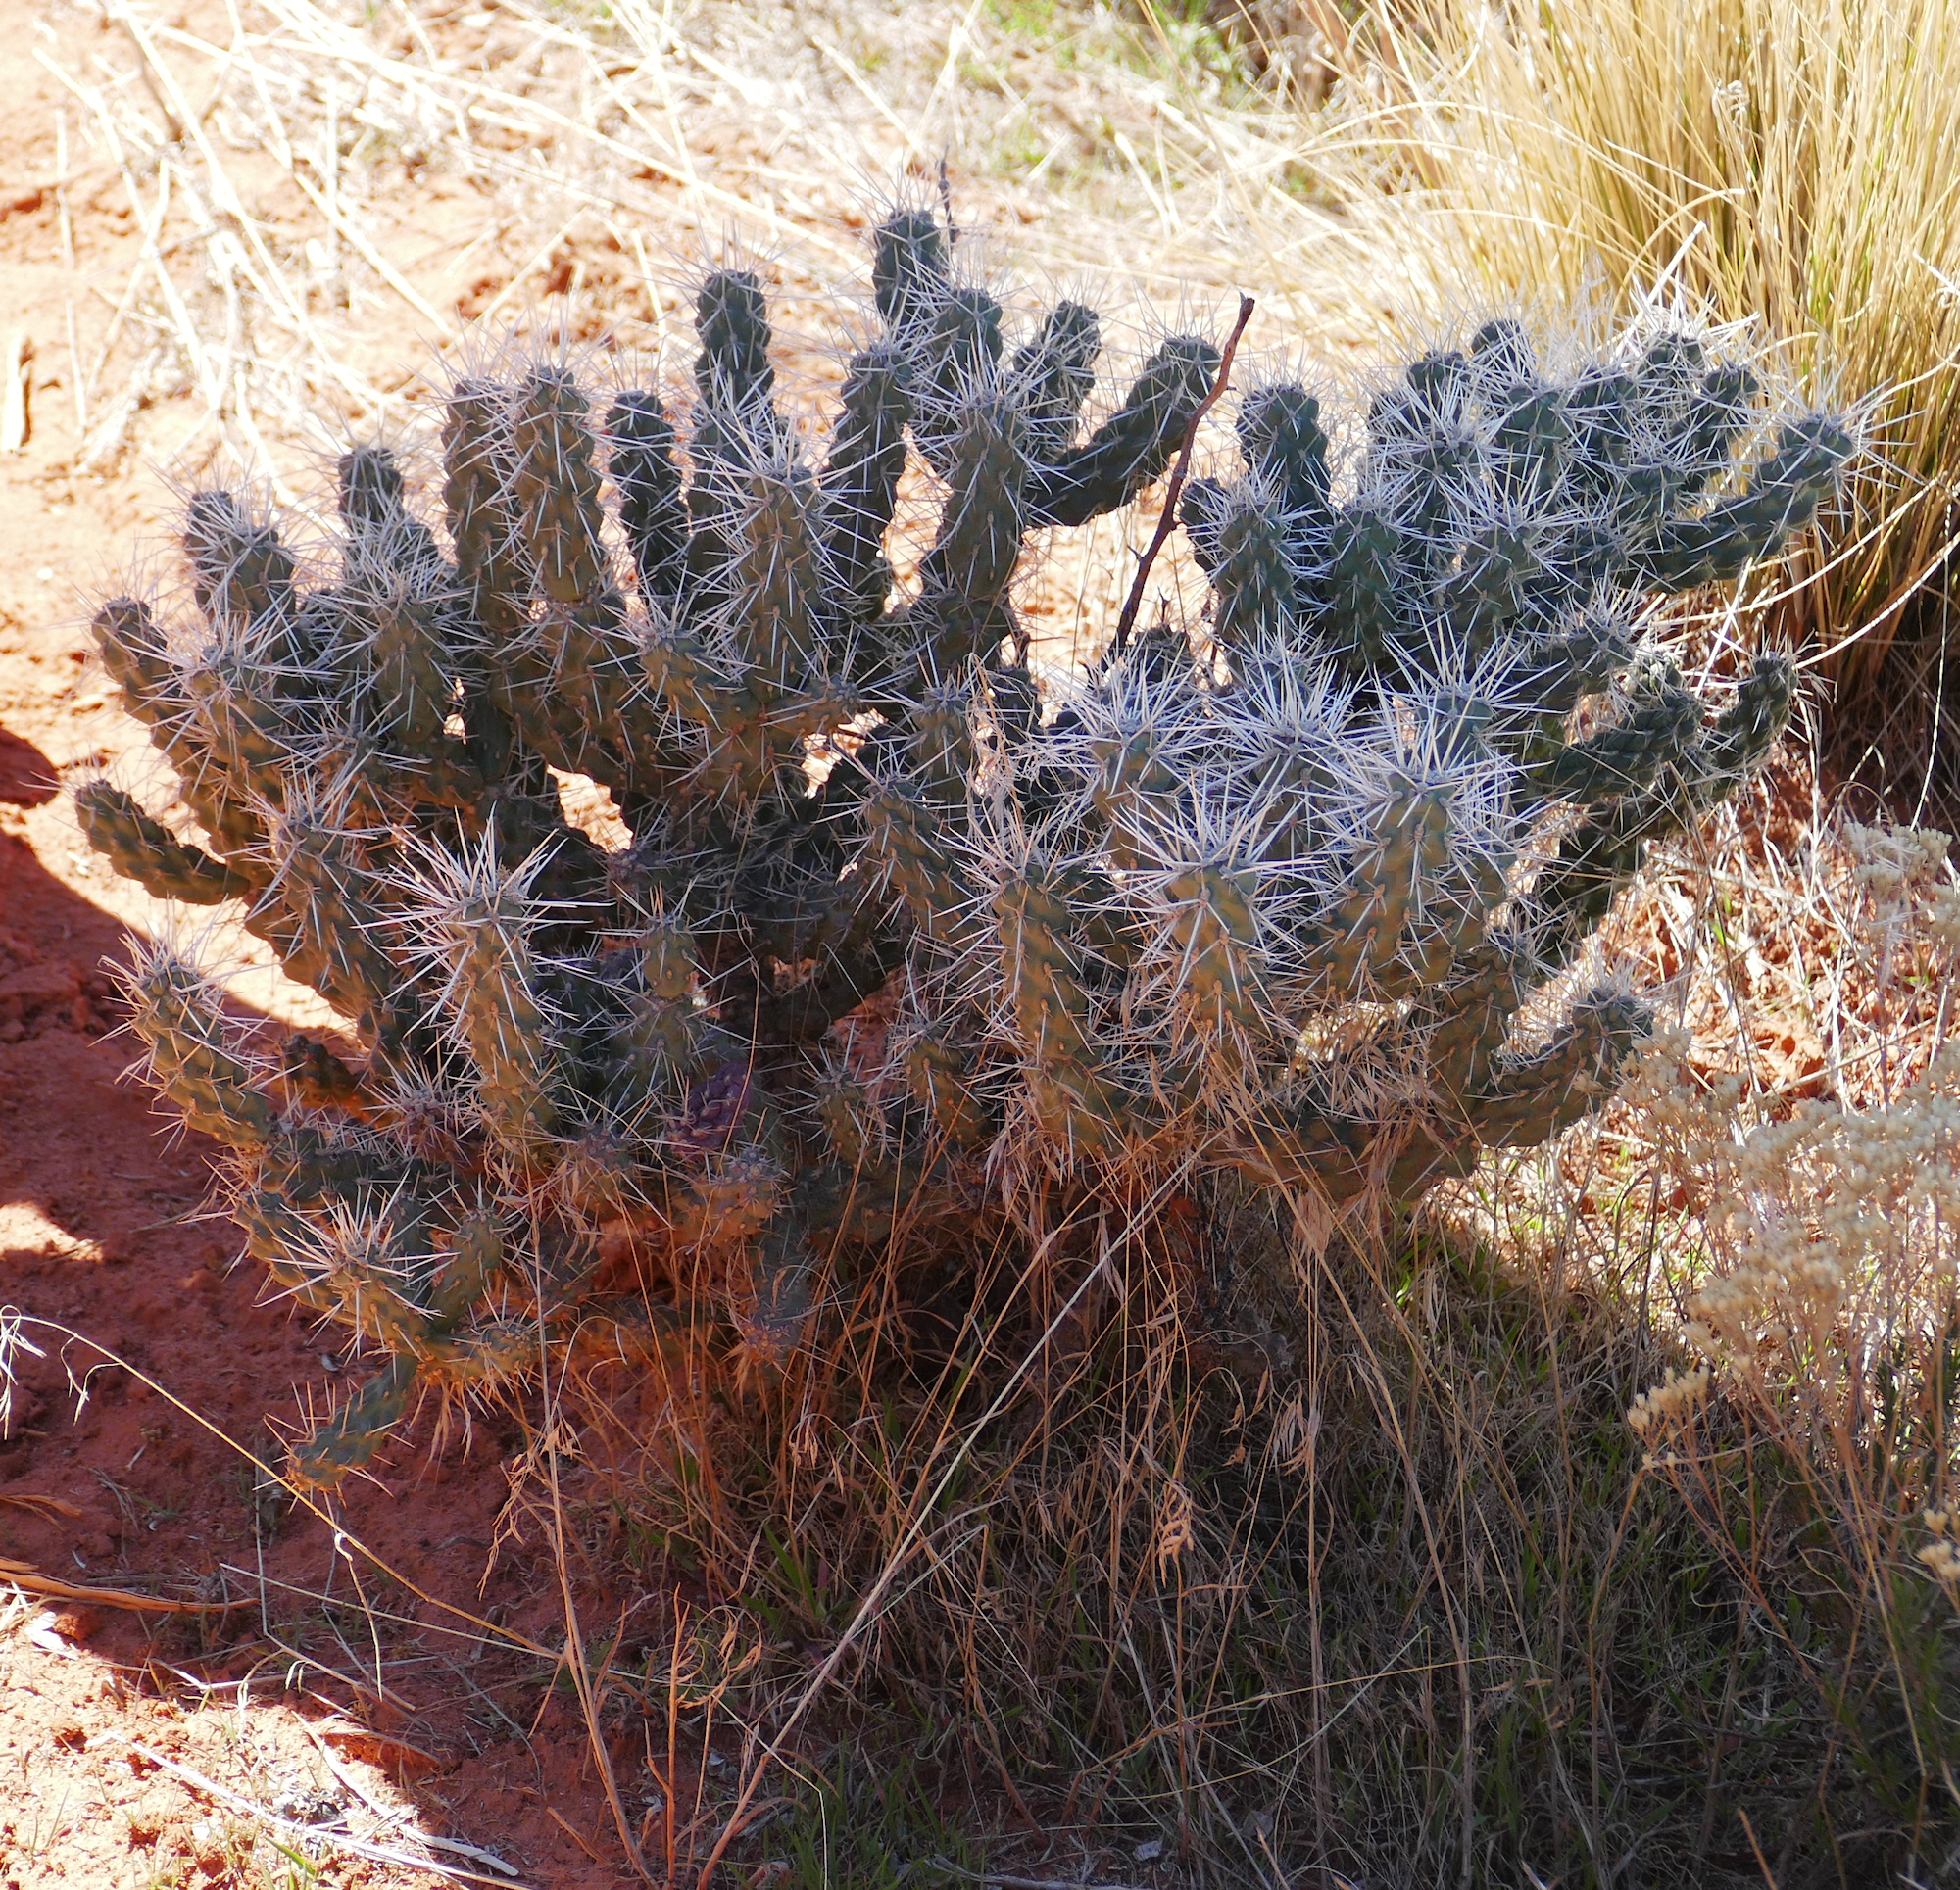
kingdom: Plantae
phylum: Tracheophyta
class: Magnoliopsida
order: Caryophyllales
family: Cactaceae
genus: Cylindropuntia
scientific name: Cylindropuntia whipplei
